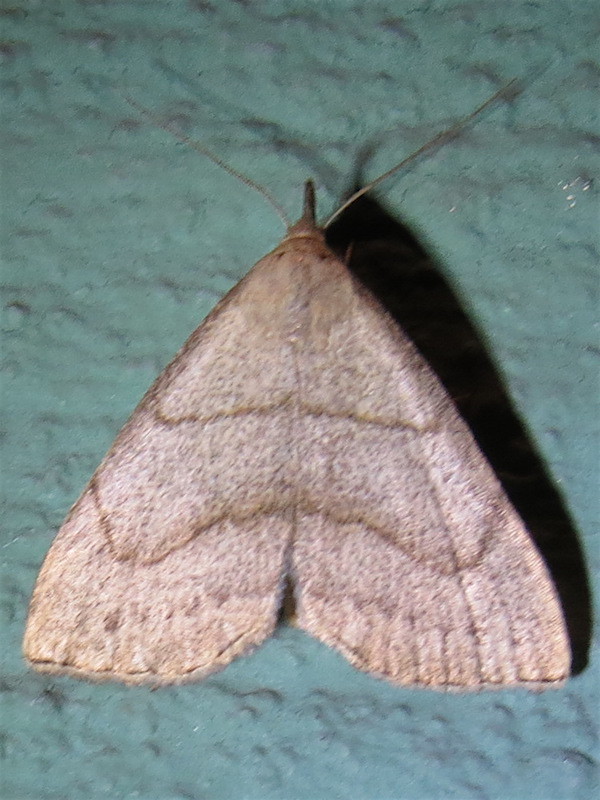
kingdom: Animalia
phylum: Arthropoda
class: Insecta
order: Lepidoptera
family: Erebidae
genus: Macrochilo
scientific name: Macrochilo litophora
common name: Brown-lined owlet
